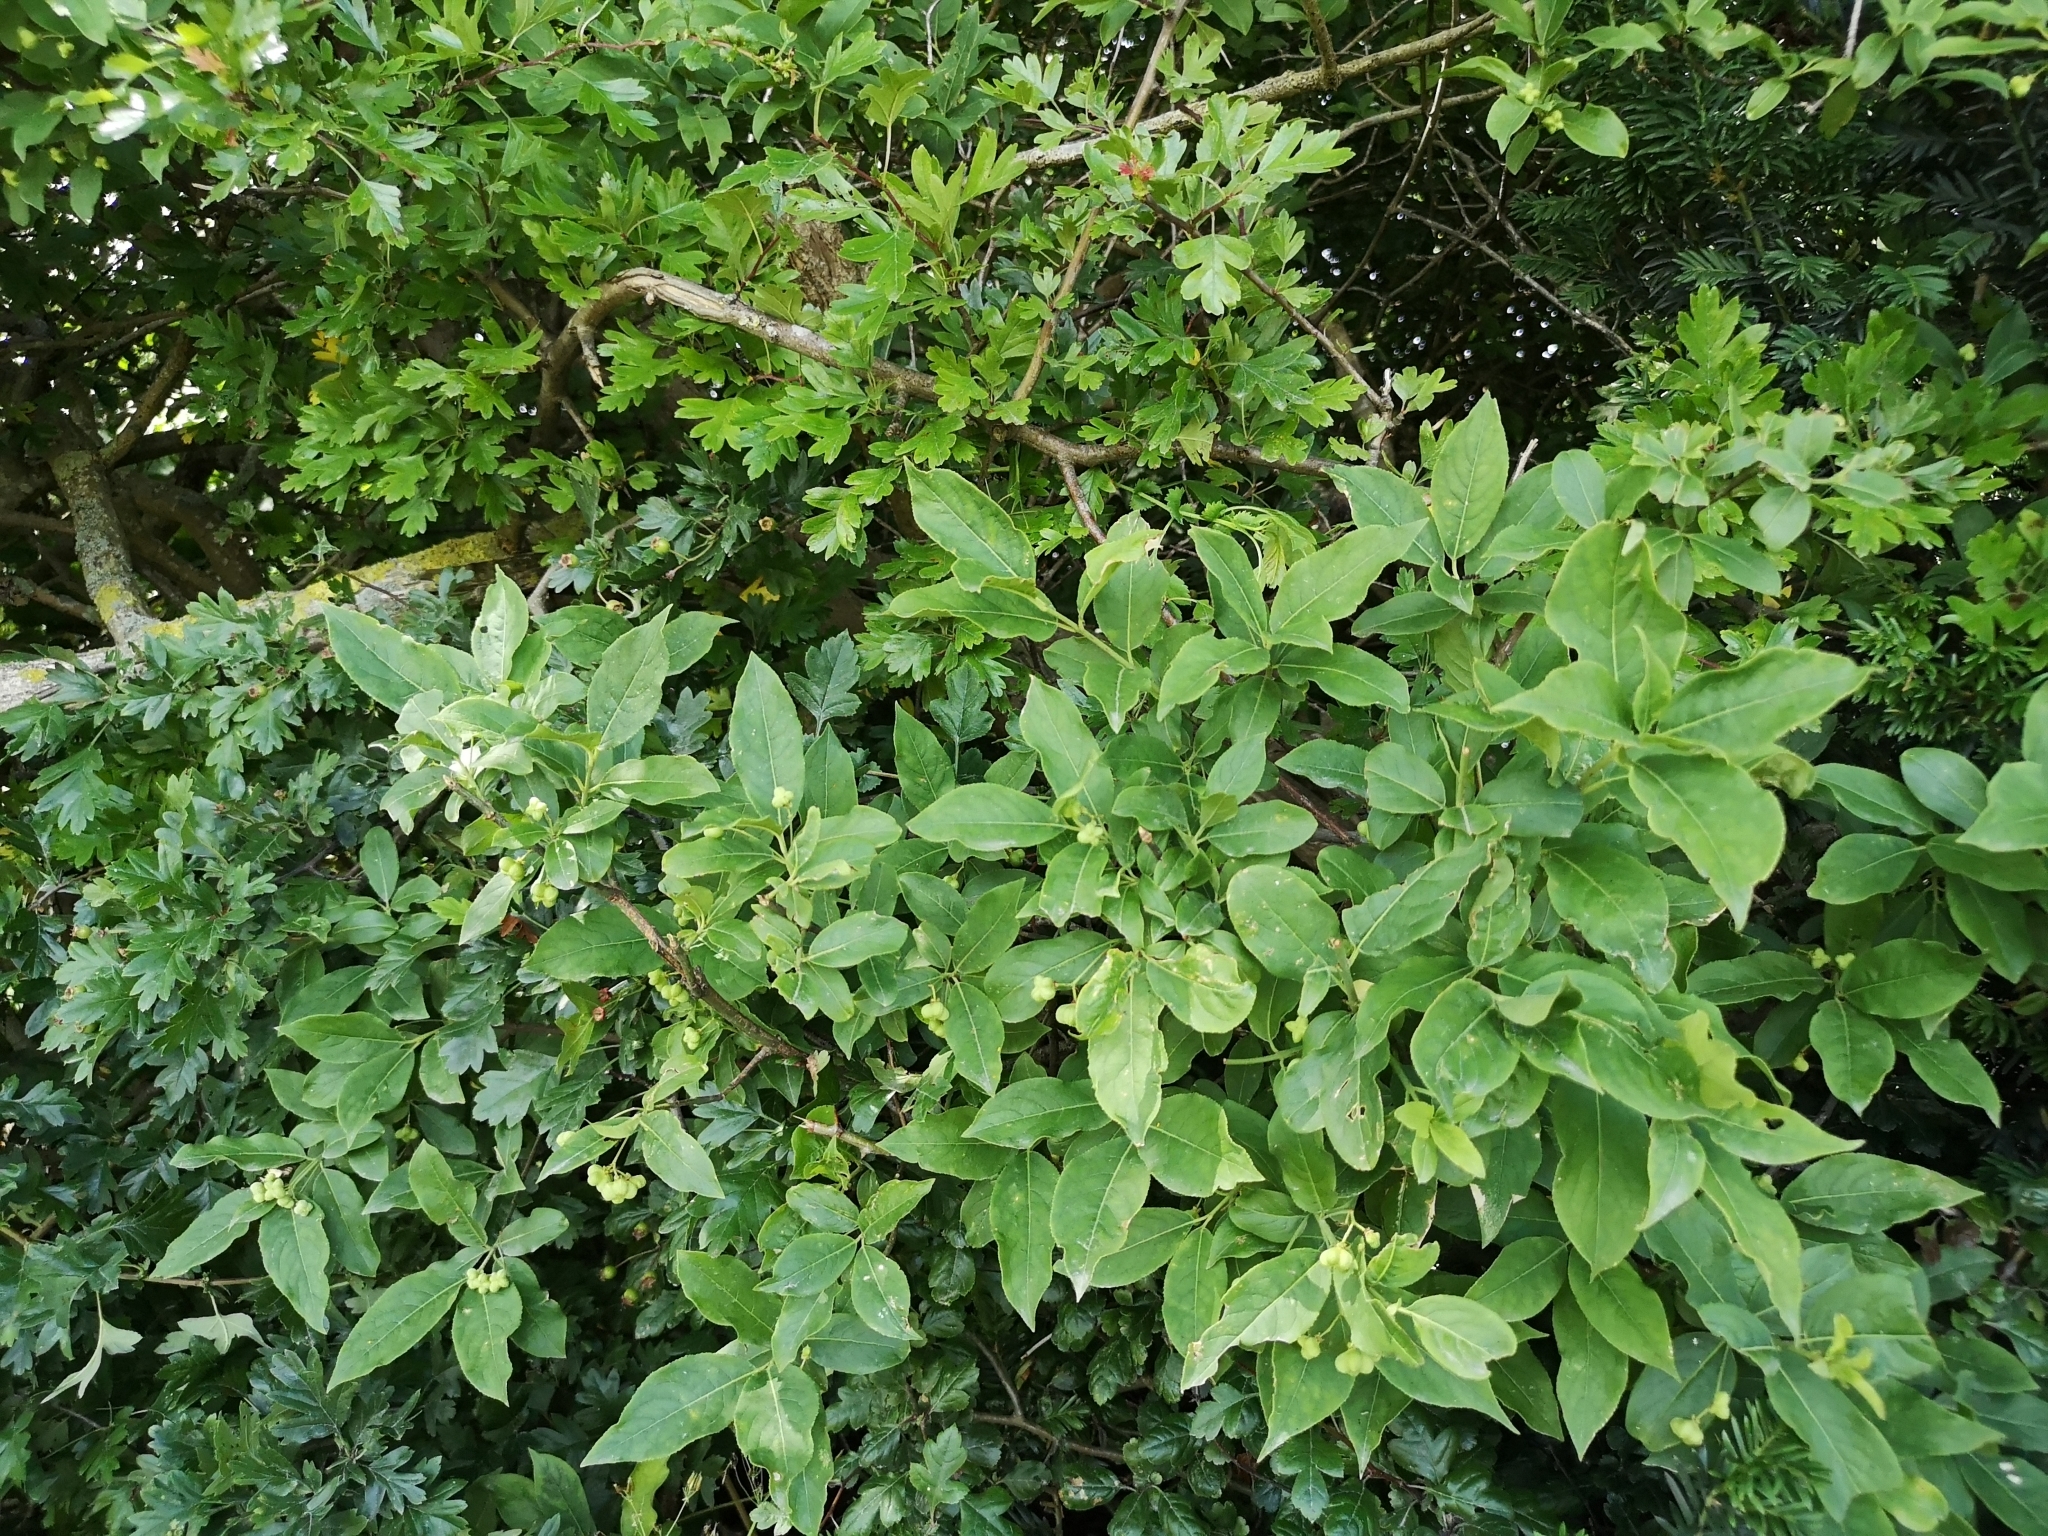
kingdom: Plantae
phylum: Tracheophyta
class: Magnoliopsida
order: Celastrales
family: Celastraceae
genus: Euonymus
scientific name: Euonymus europaeus
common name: Spindle
